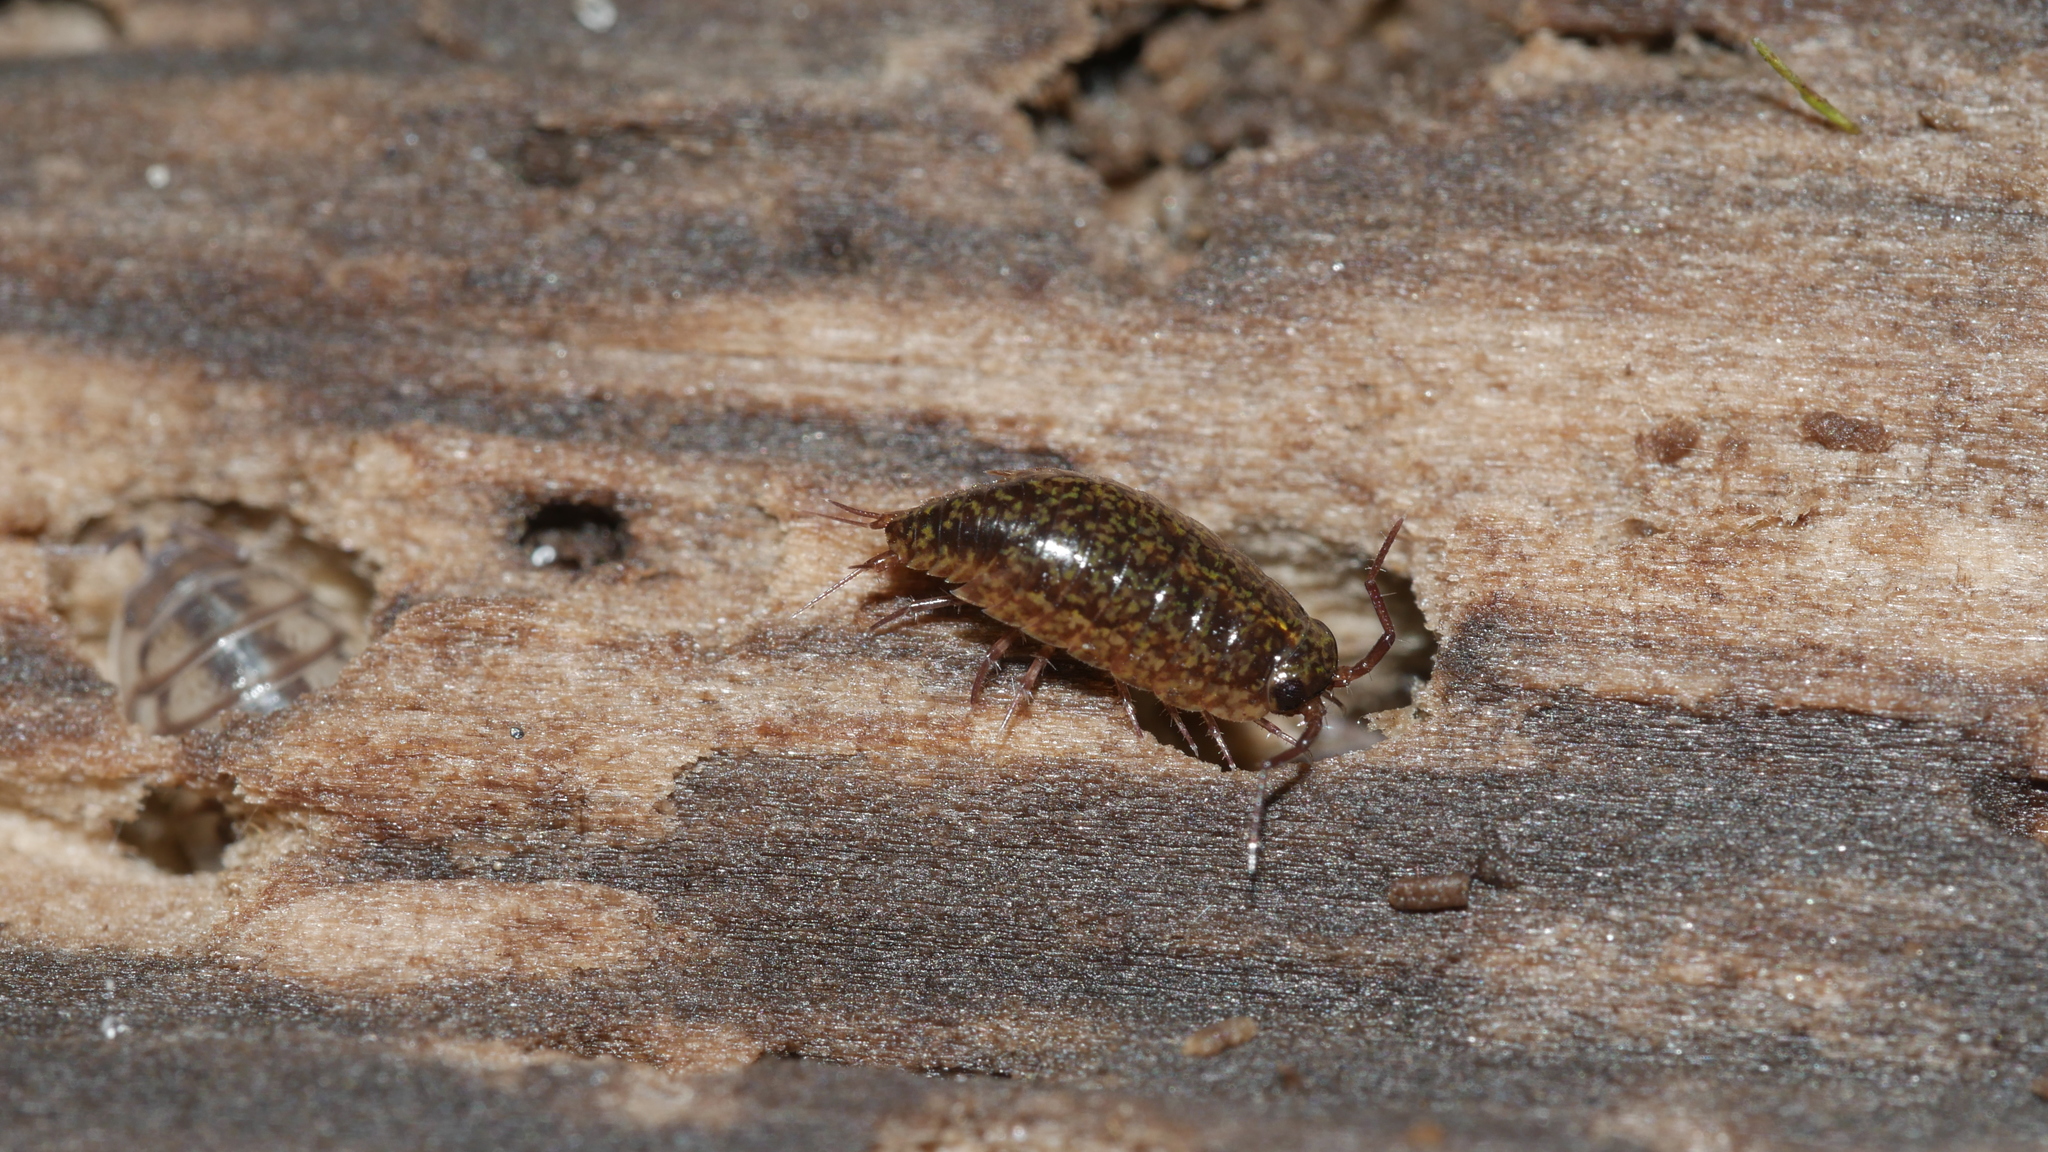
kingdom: Animalia
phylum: Arthropoda
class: Malacostraca
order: Isopoda
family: Ligiidae
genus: Ligidium
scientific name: Ligidium elrodii
